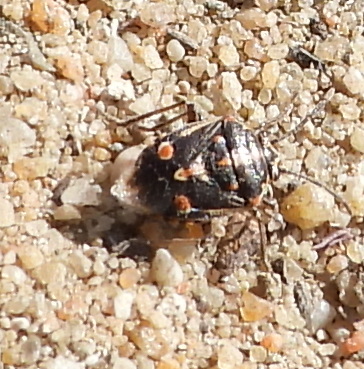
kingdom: Animalia
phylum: Arthropoda
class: Insecta
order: Hemiptera
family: Pentatomidae
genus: Bagrada
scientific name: Bagrada hilaris
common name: Bagrada bug
